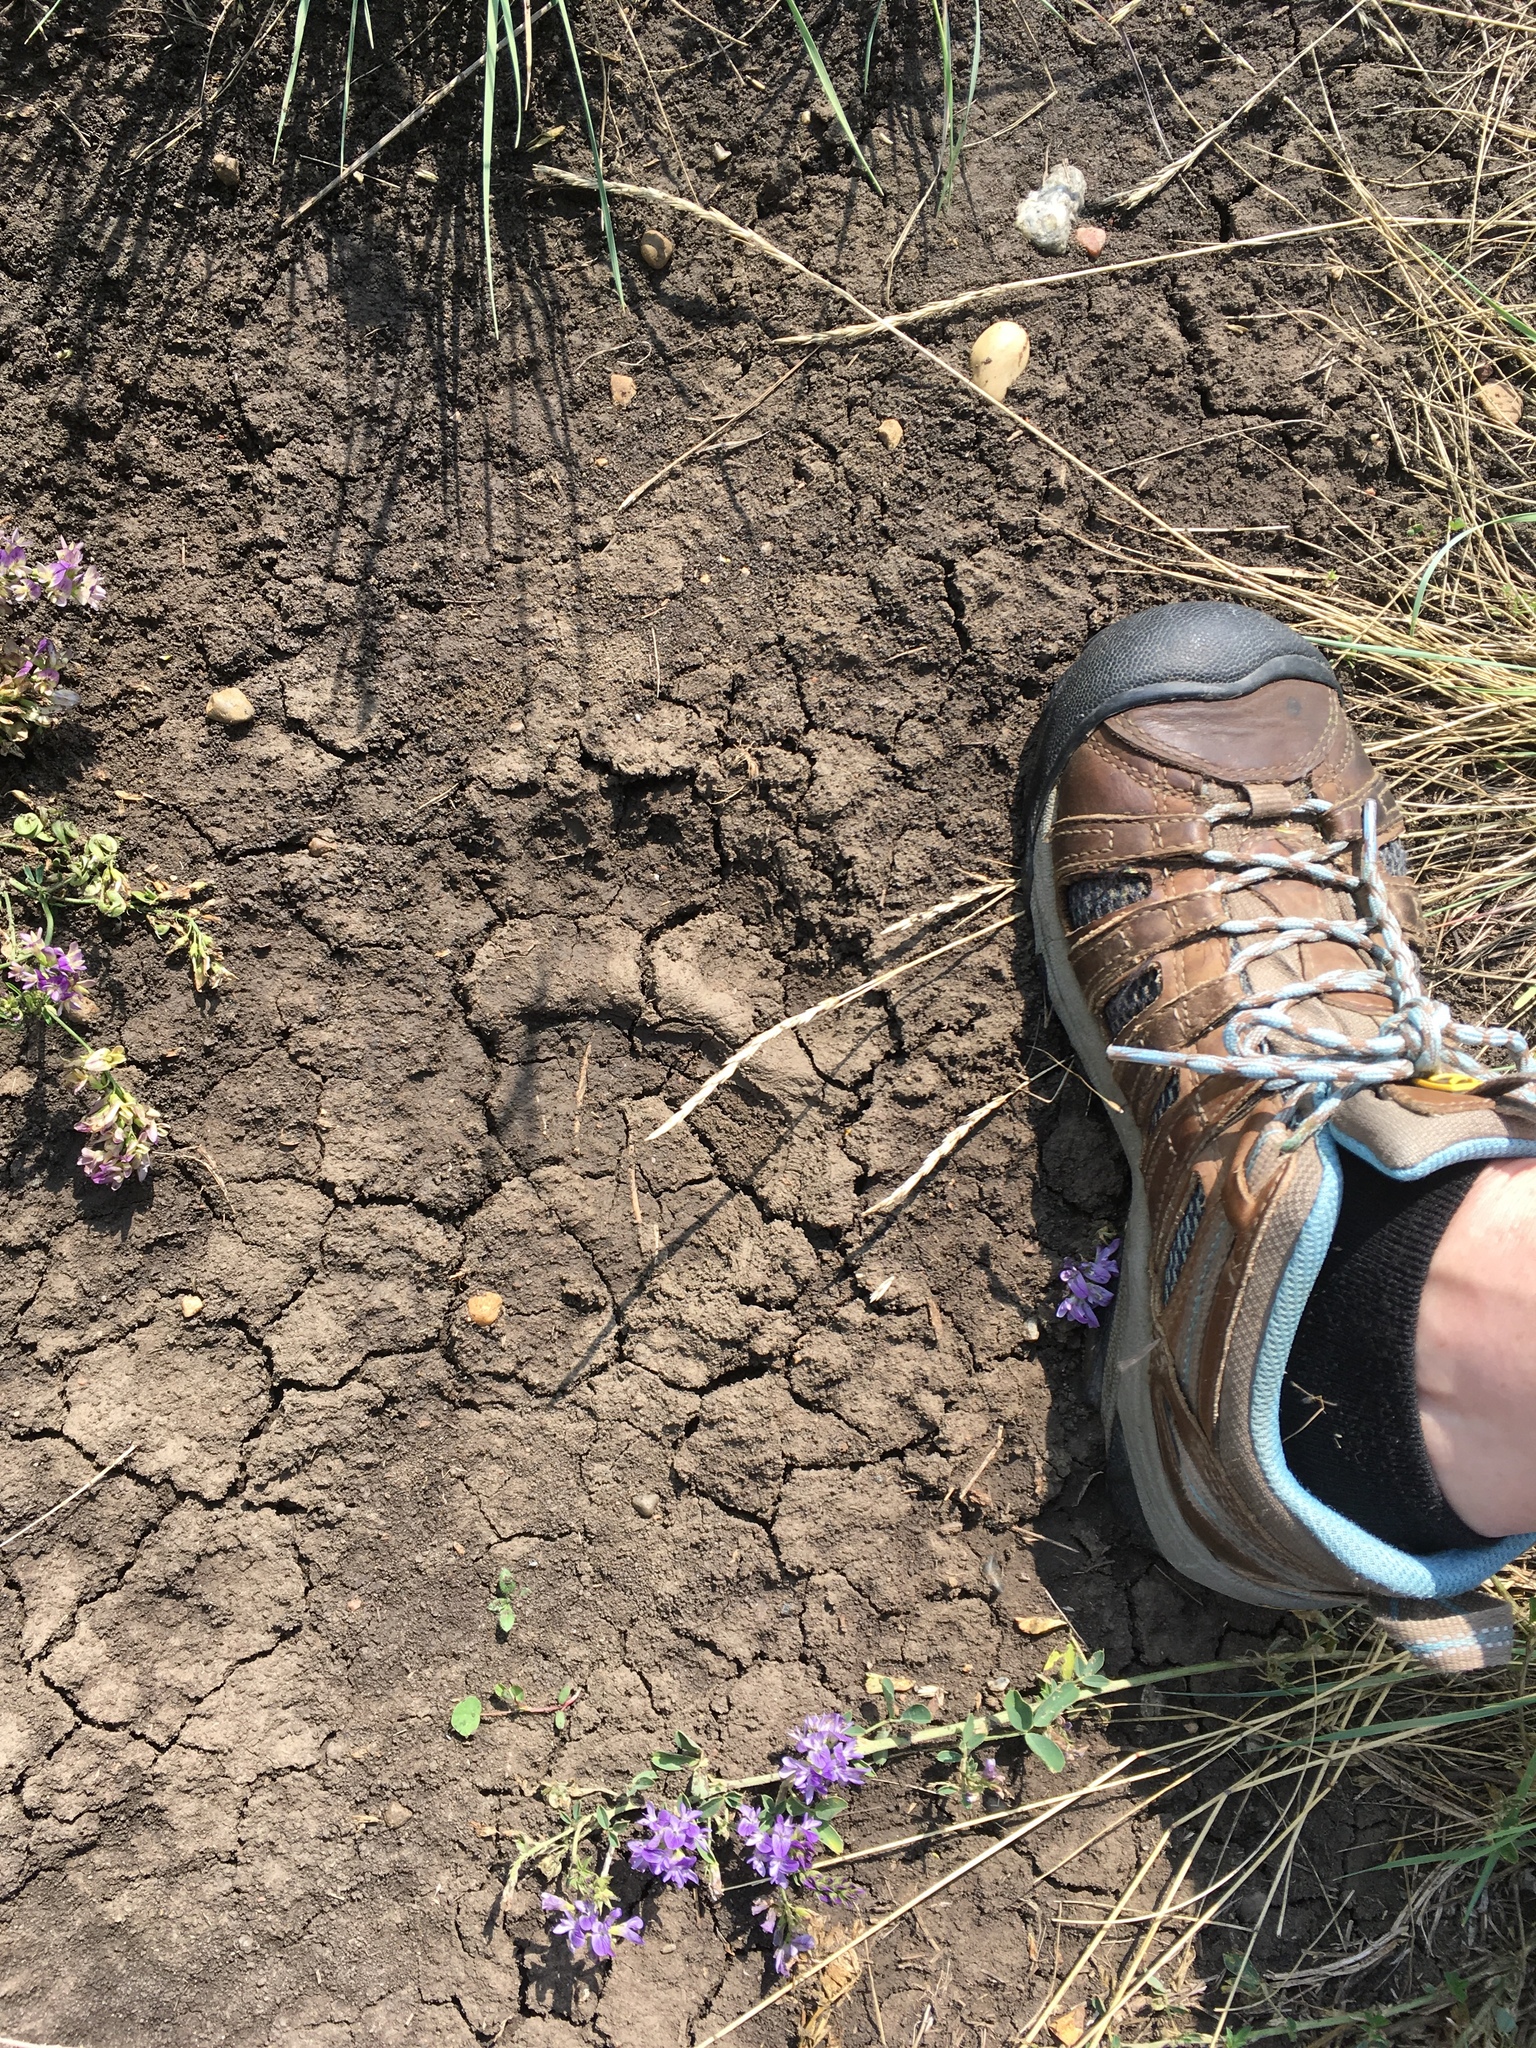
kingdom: Animalia
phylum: Chordata
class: Mammalia
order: Carnivora
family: Ursidae
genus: Ursus
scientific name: Ursus americanus
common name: American black bear
